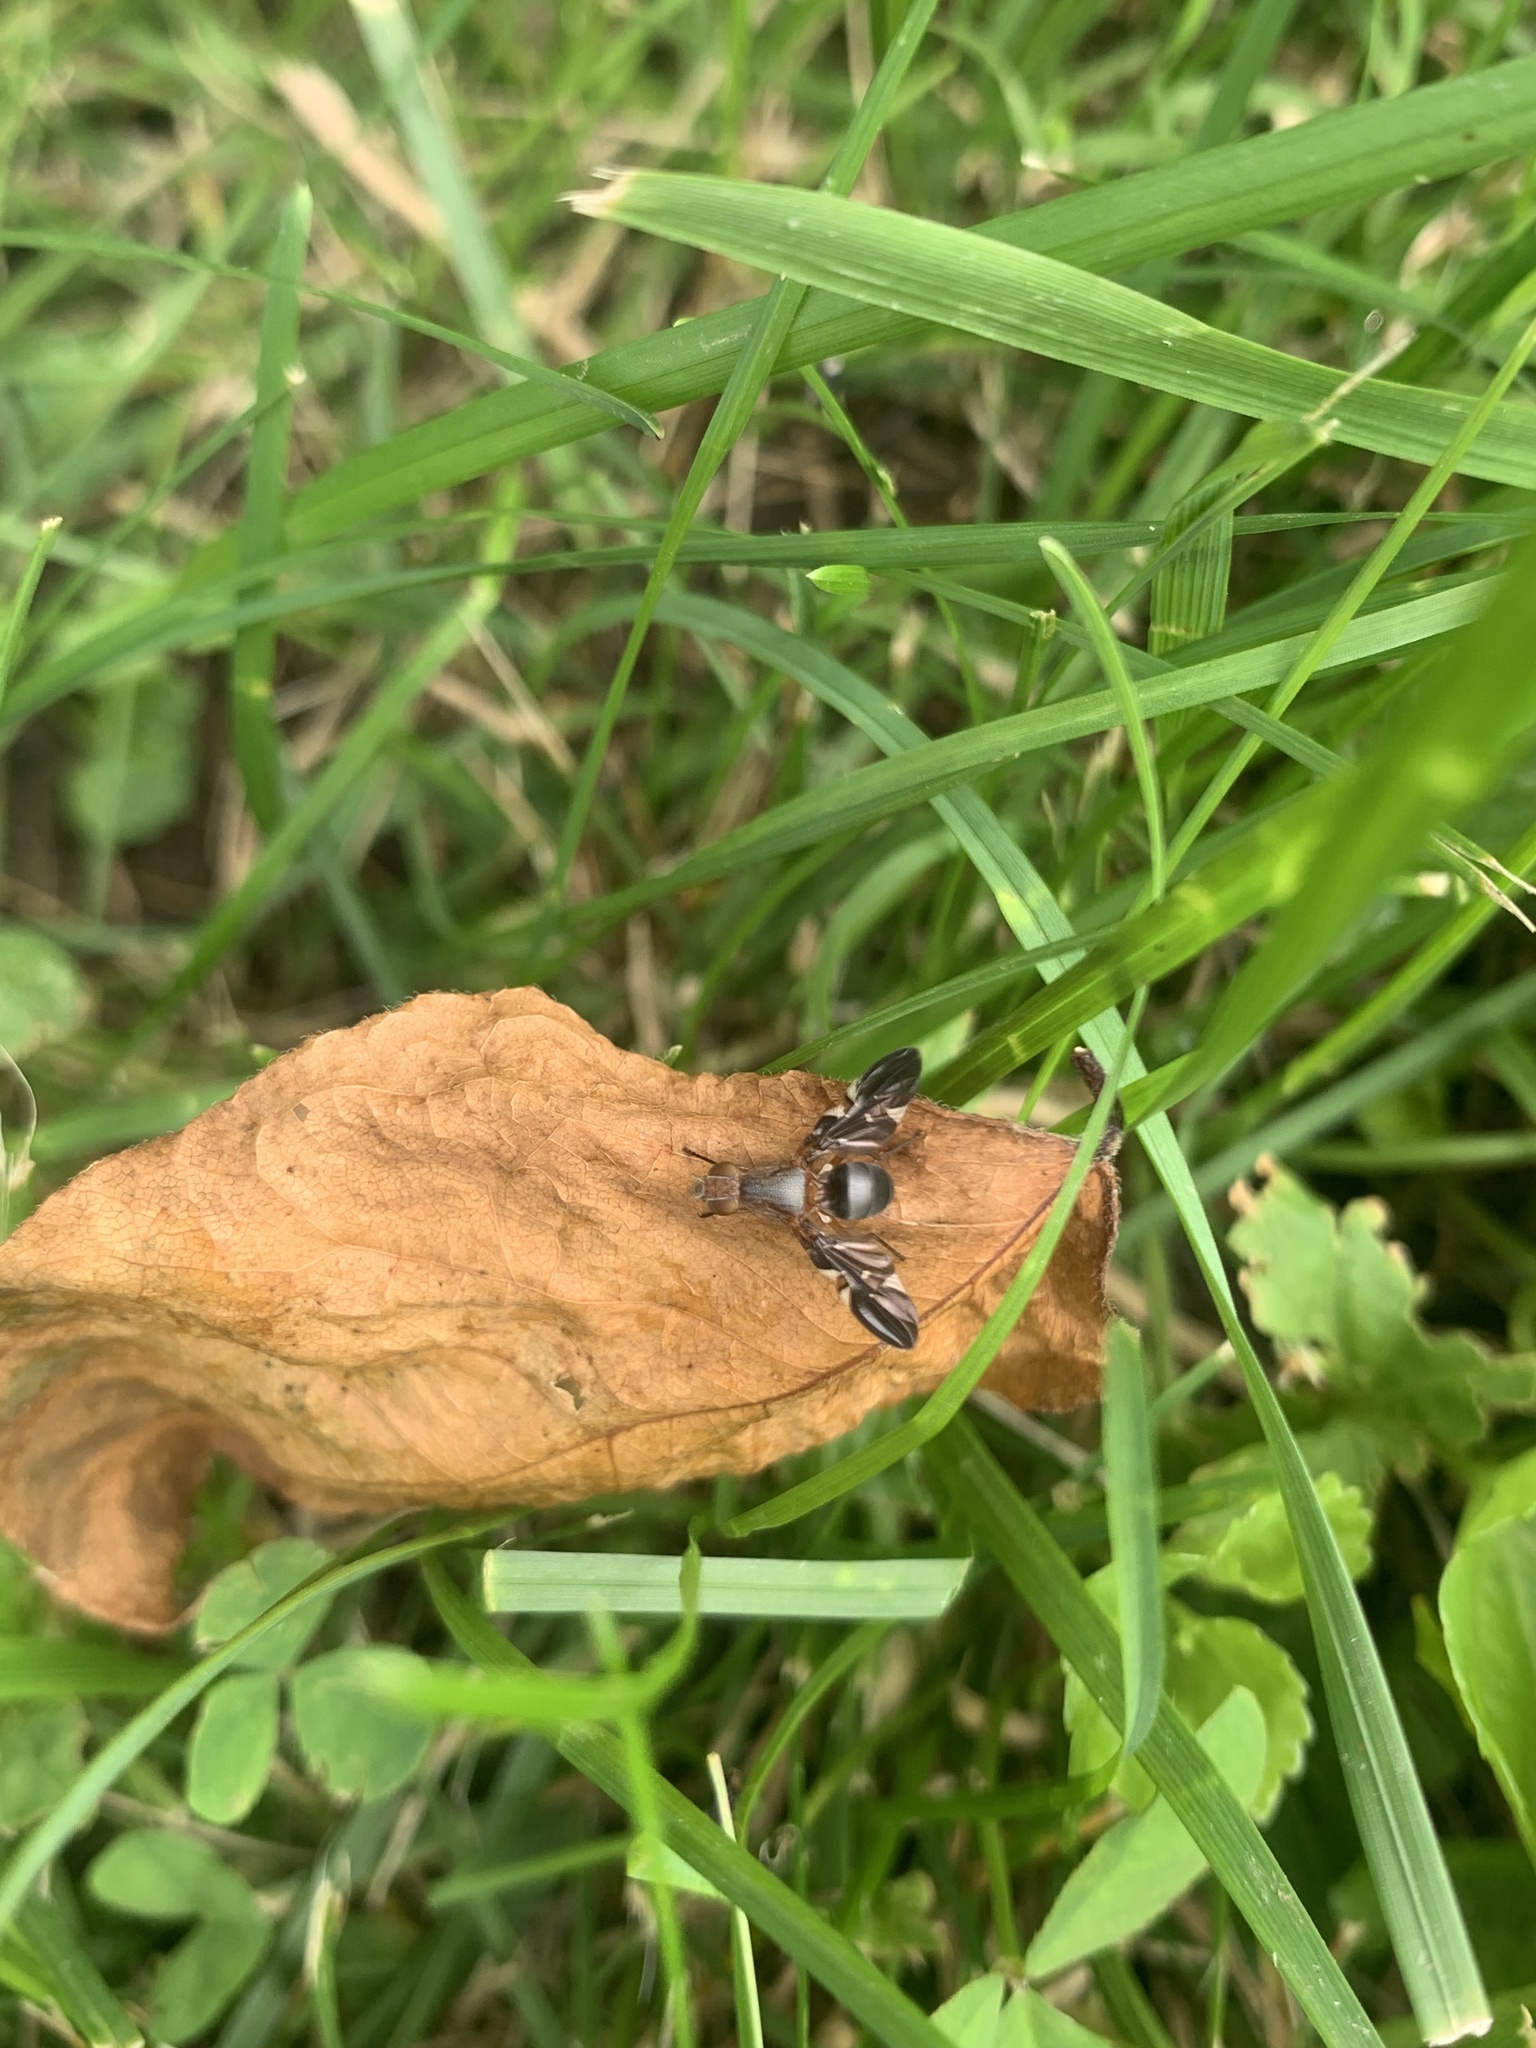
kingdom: Animalia
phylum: Arthropoda
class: Insecta
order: Diptera
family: Ulidiidae
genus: Delphinia
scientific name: Delphinia picta
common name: Common picture-winged fly
